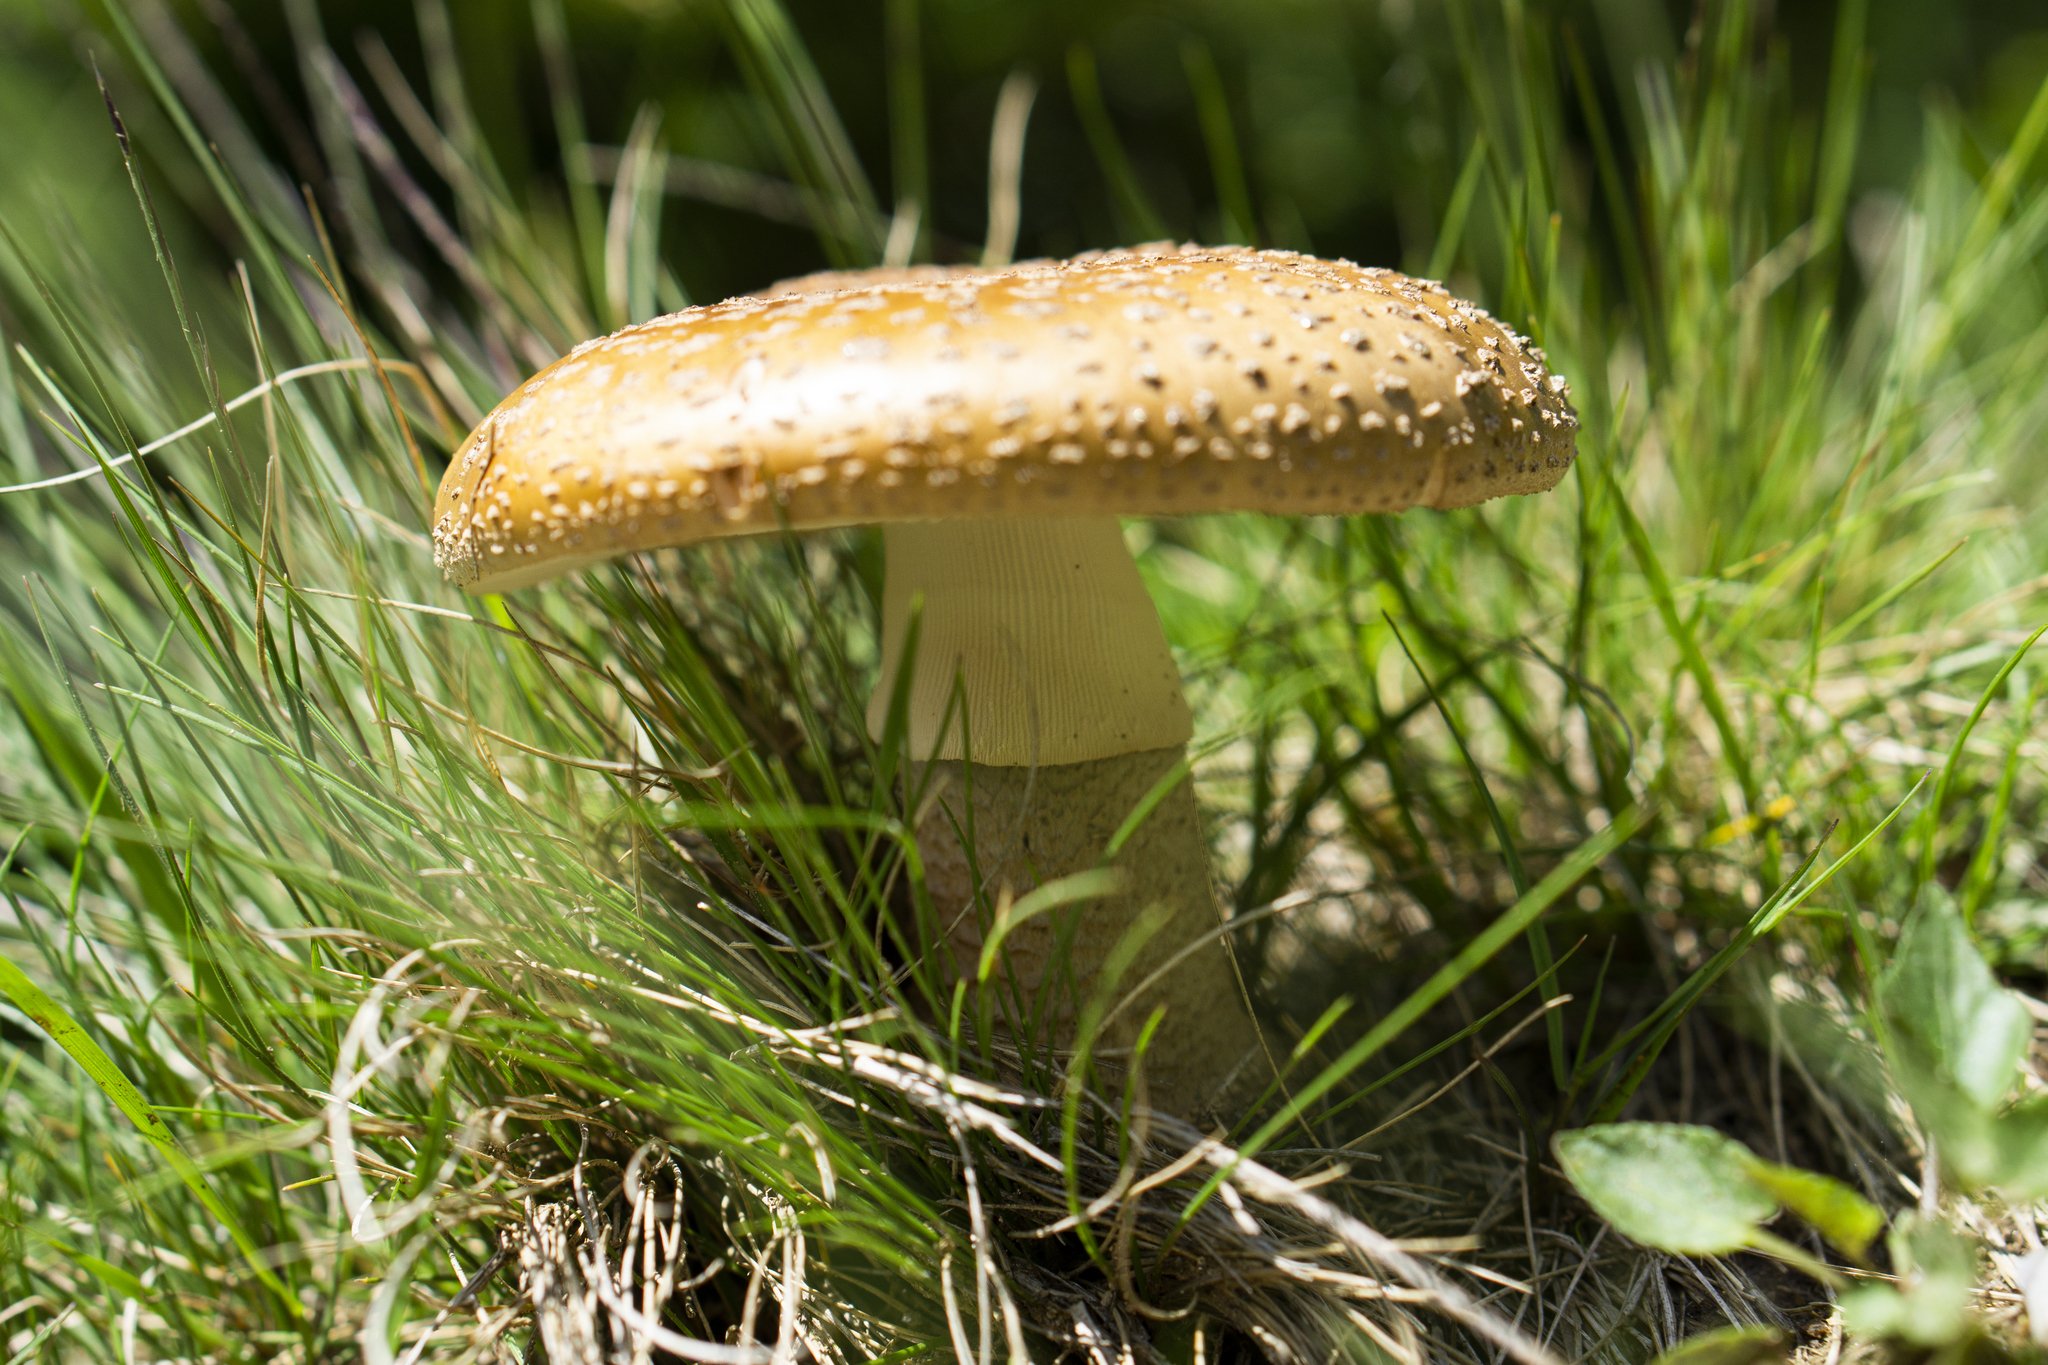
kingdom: Fungi
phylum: Basidiomycota
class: Agaricomycetes
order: Agaricales
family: Amanitaceae
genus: Amanita
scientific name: Amanita rubescens
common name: Blusher
